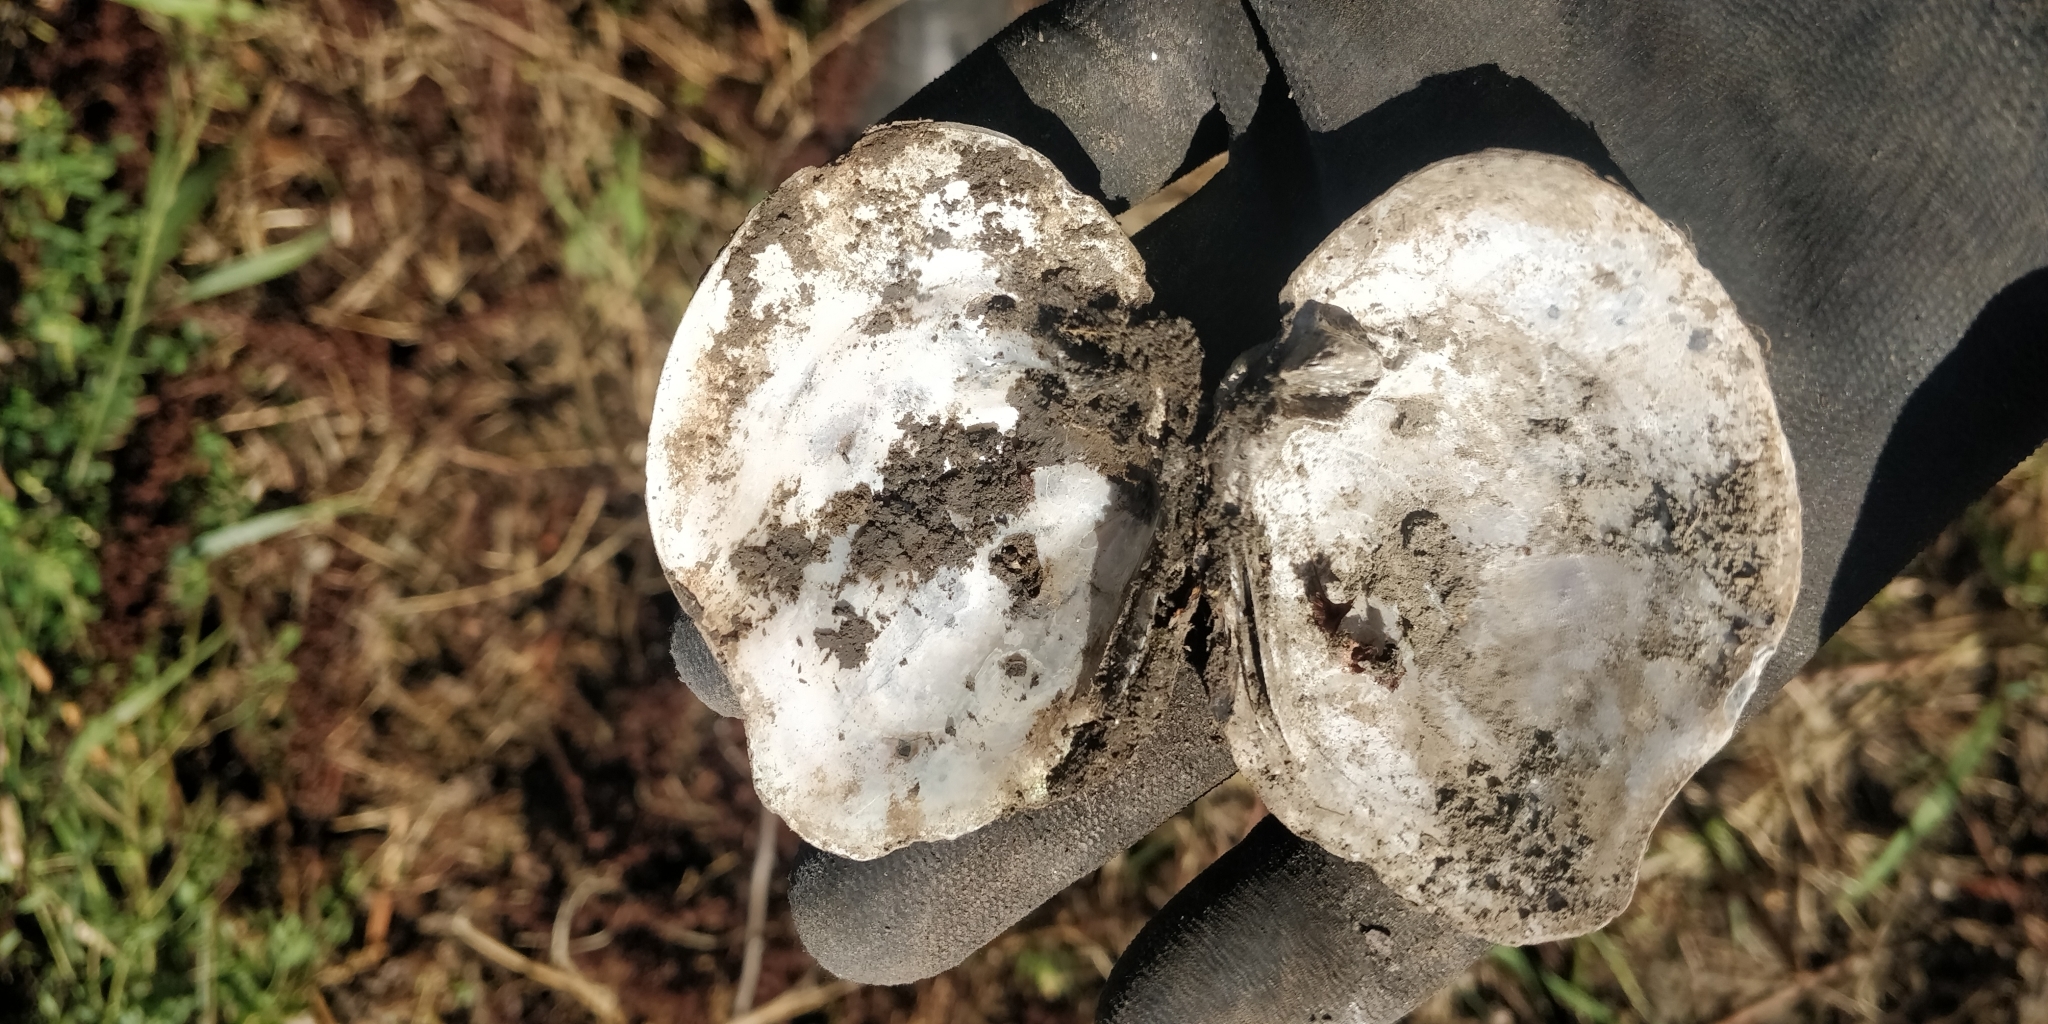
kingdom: Animalia
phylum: Mollusca
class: Bivalvia
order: Unionida
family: Unionidae
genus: Quadrula
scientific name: Quadrula quadrula
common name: Mapleleaf
